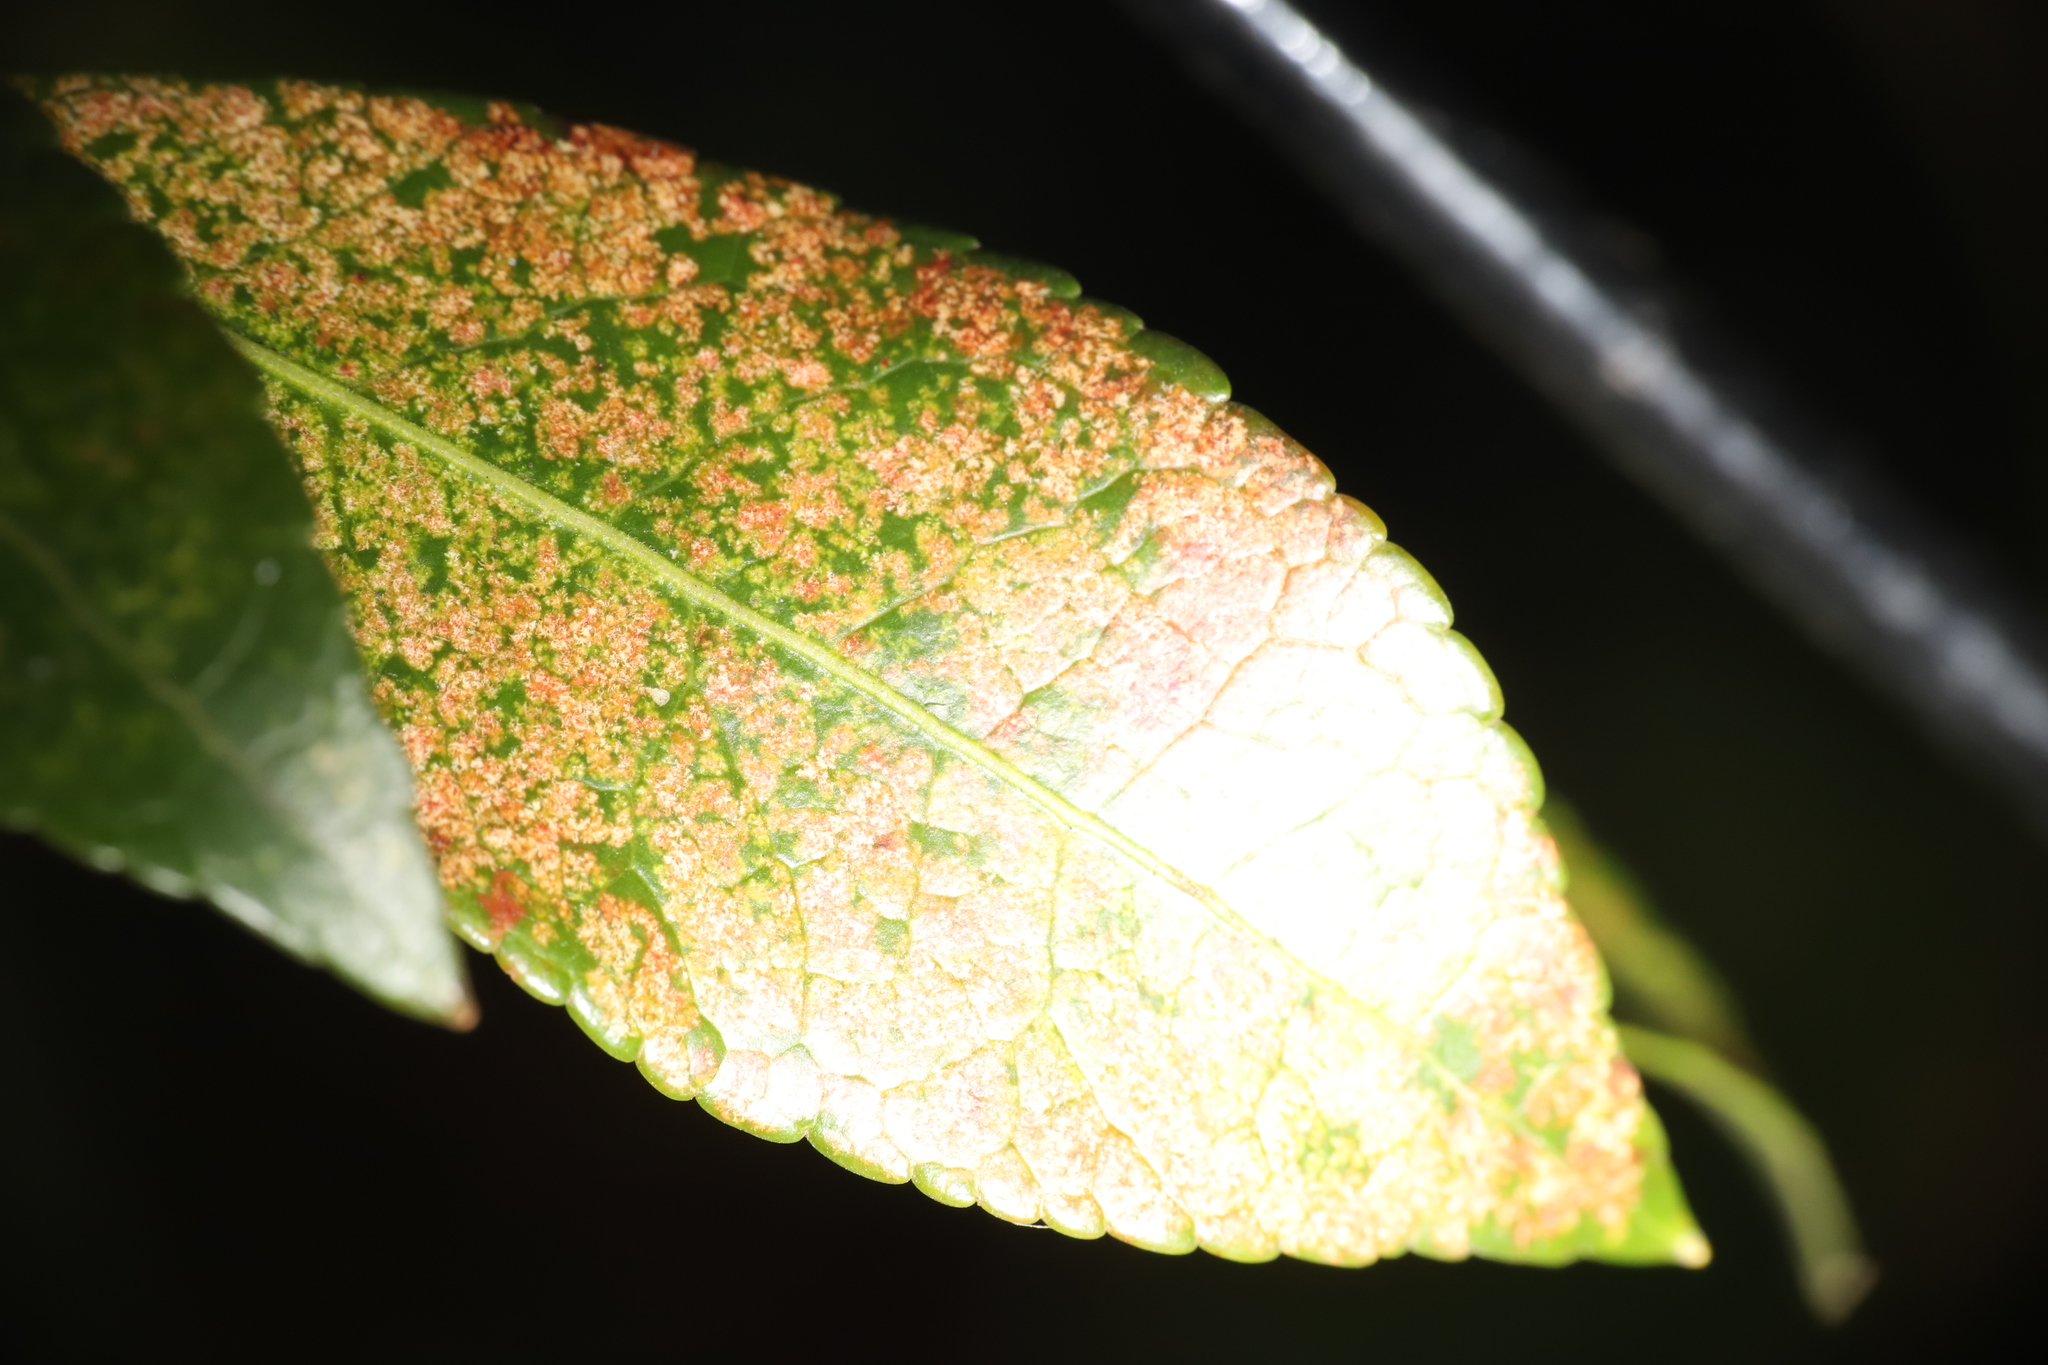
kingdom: Animalia
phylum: Arthropoda
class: Insecta
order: Hemiptera
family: Tingidae
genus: Stephanitis
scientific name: Stephanitis takeyai
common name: Andromeda lacebug
